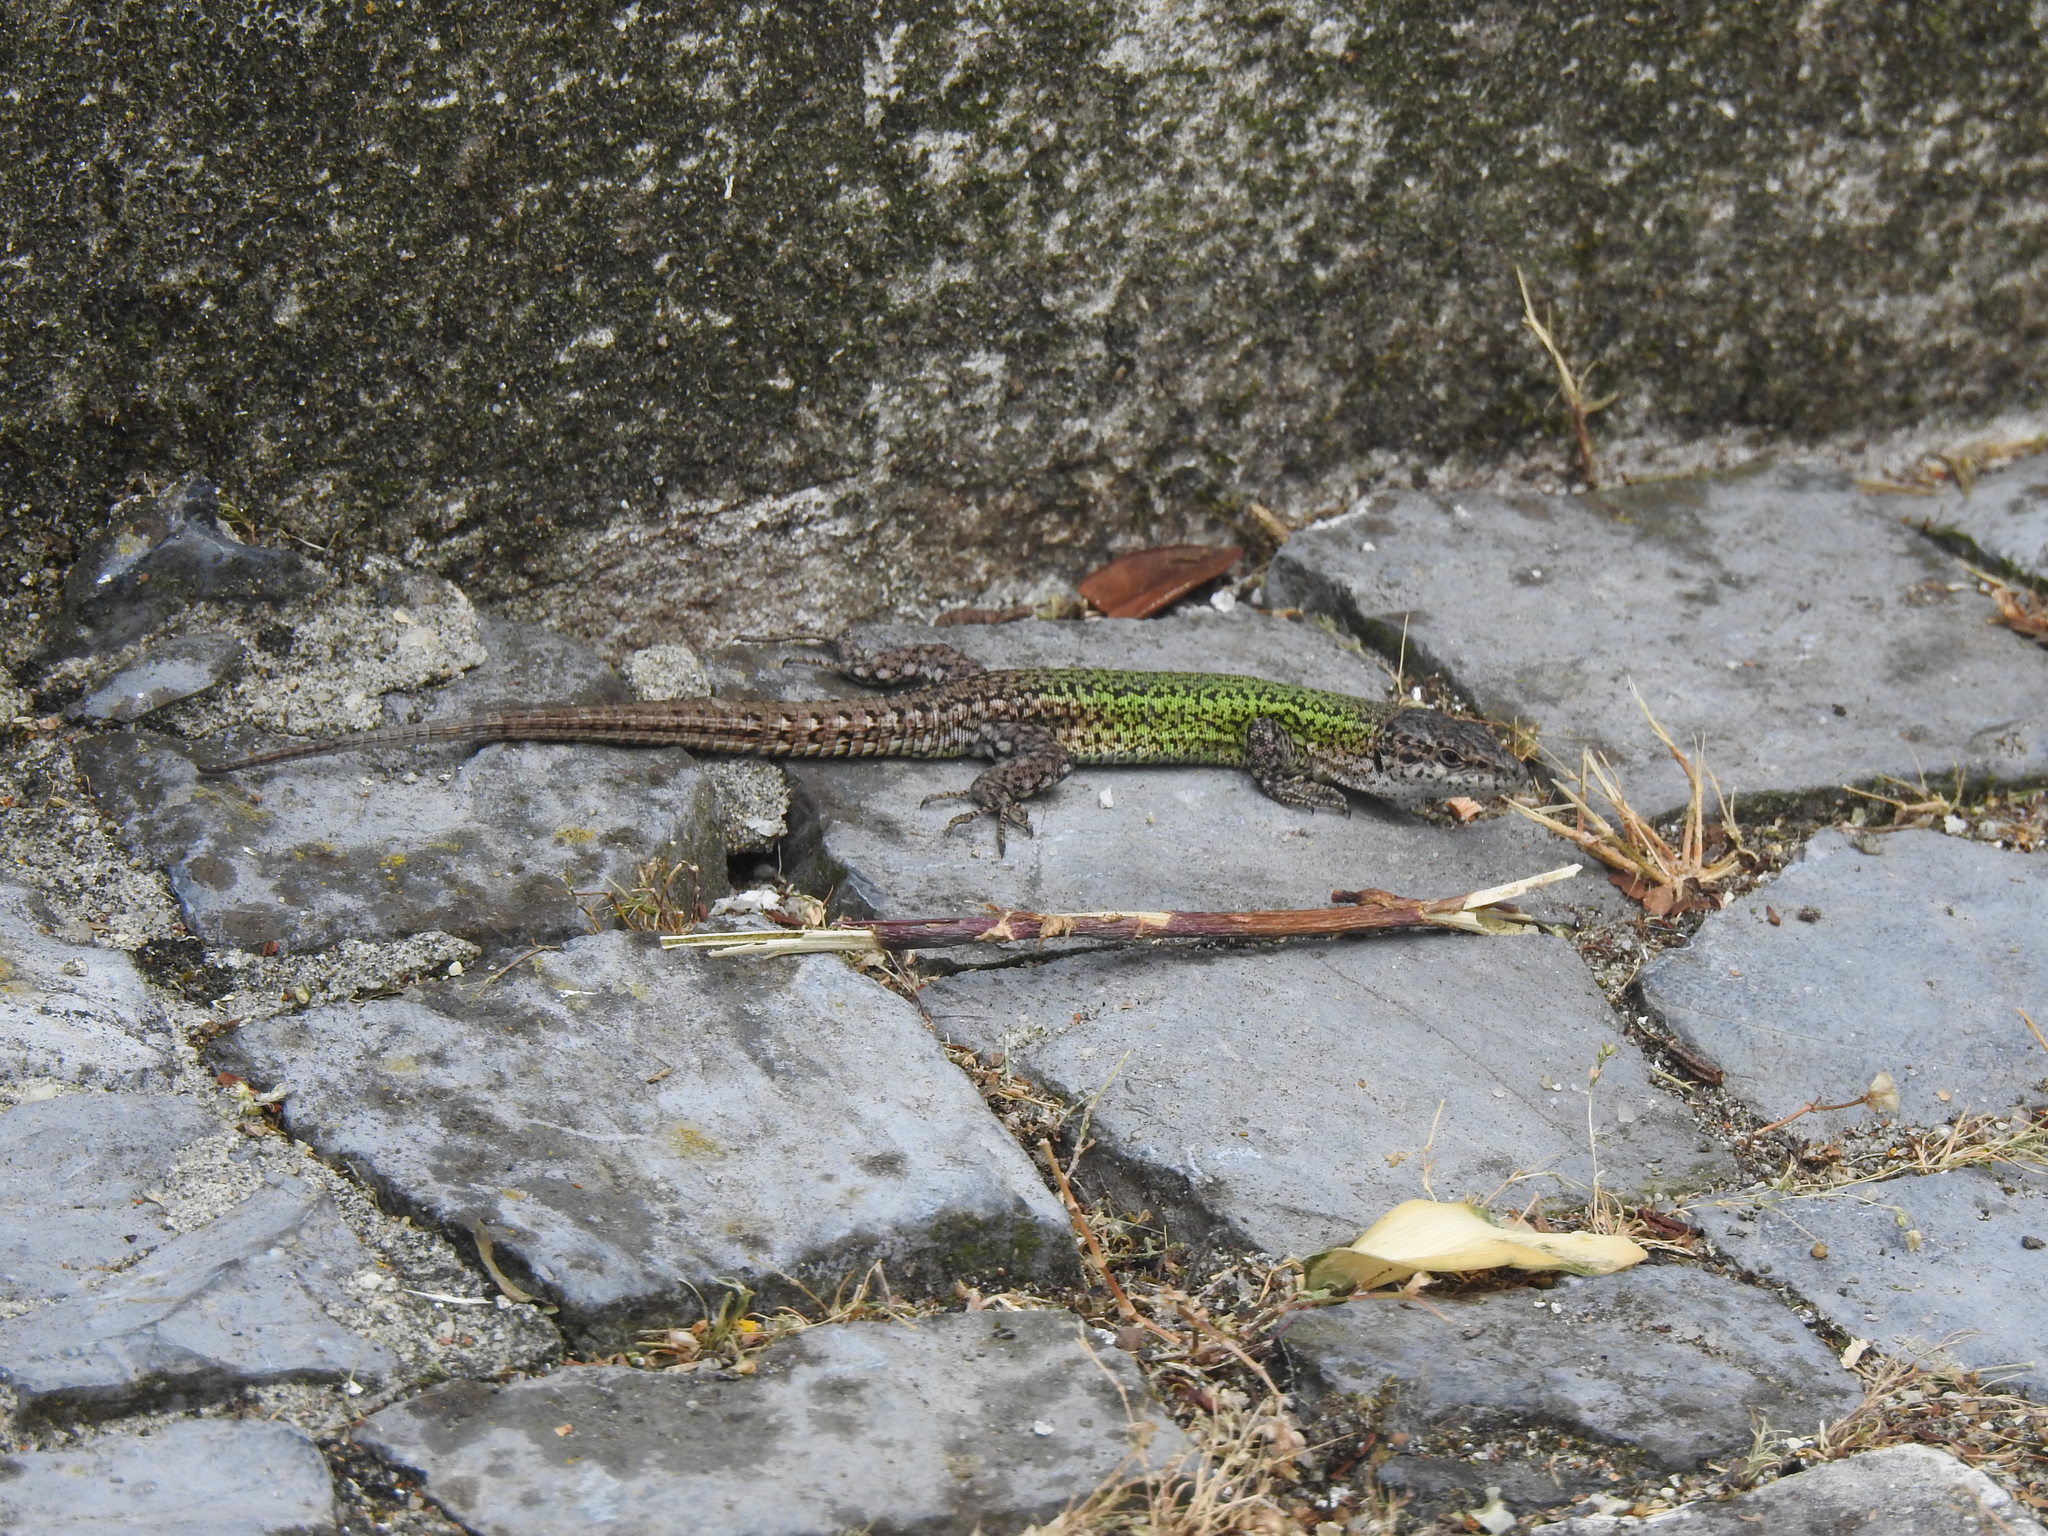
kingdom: Animalia
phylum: Chordata
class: Squamata
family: Lacertidae
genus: Podarcis
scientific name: Podarcis carbonelli
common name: Carbonelli's wall lizard
